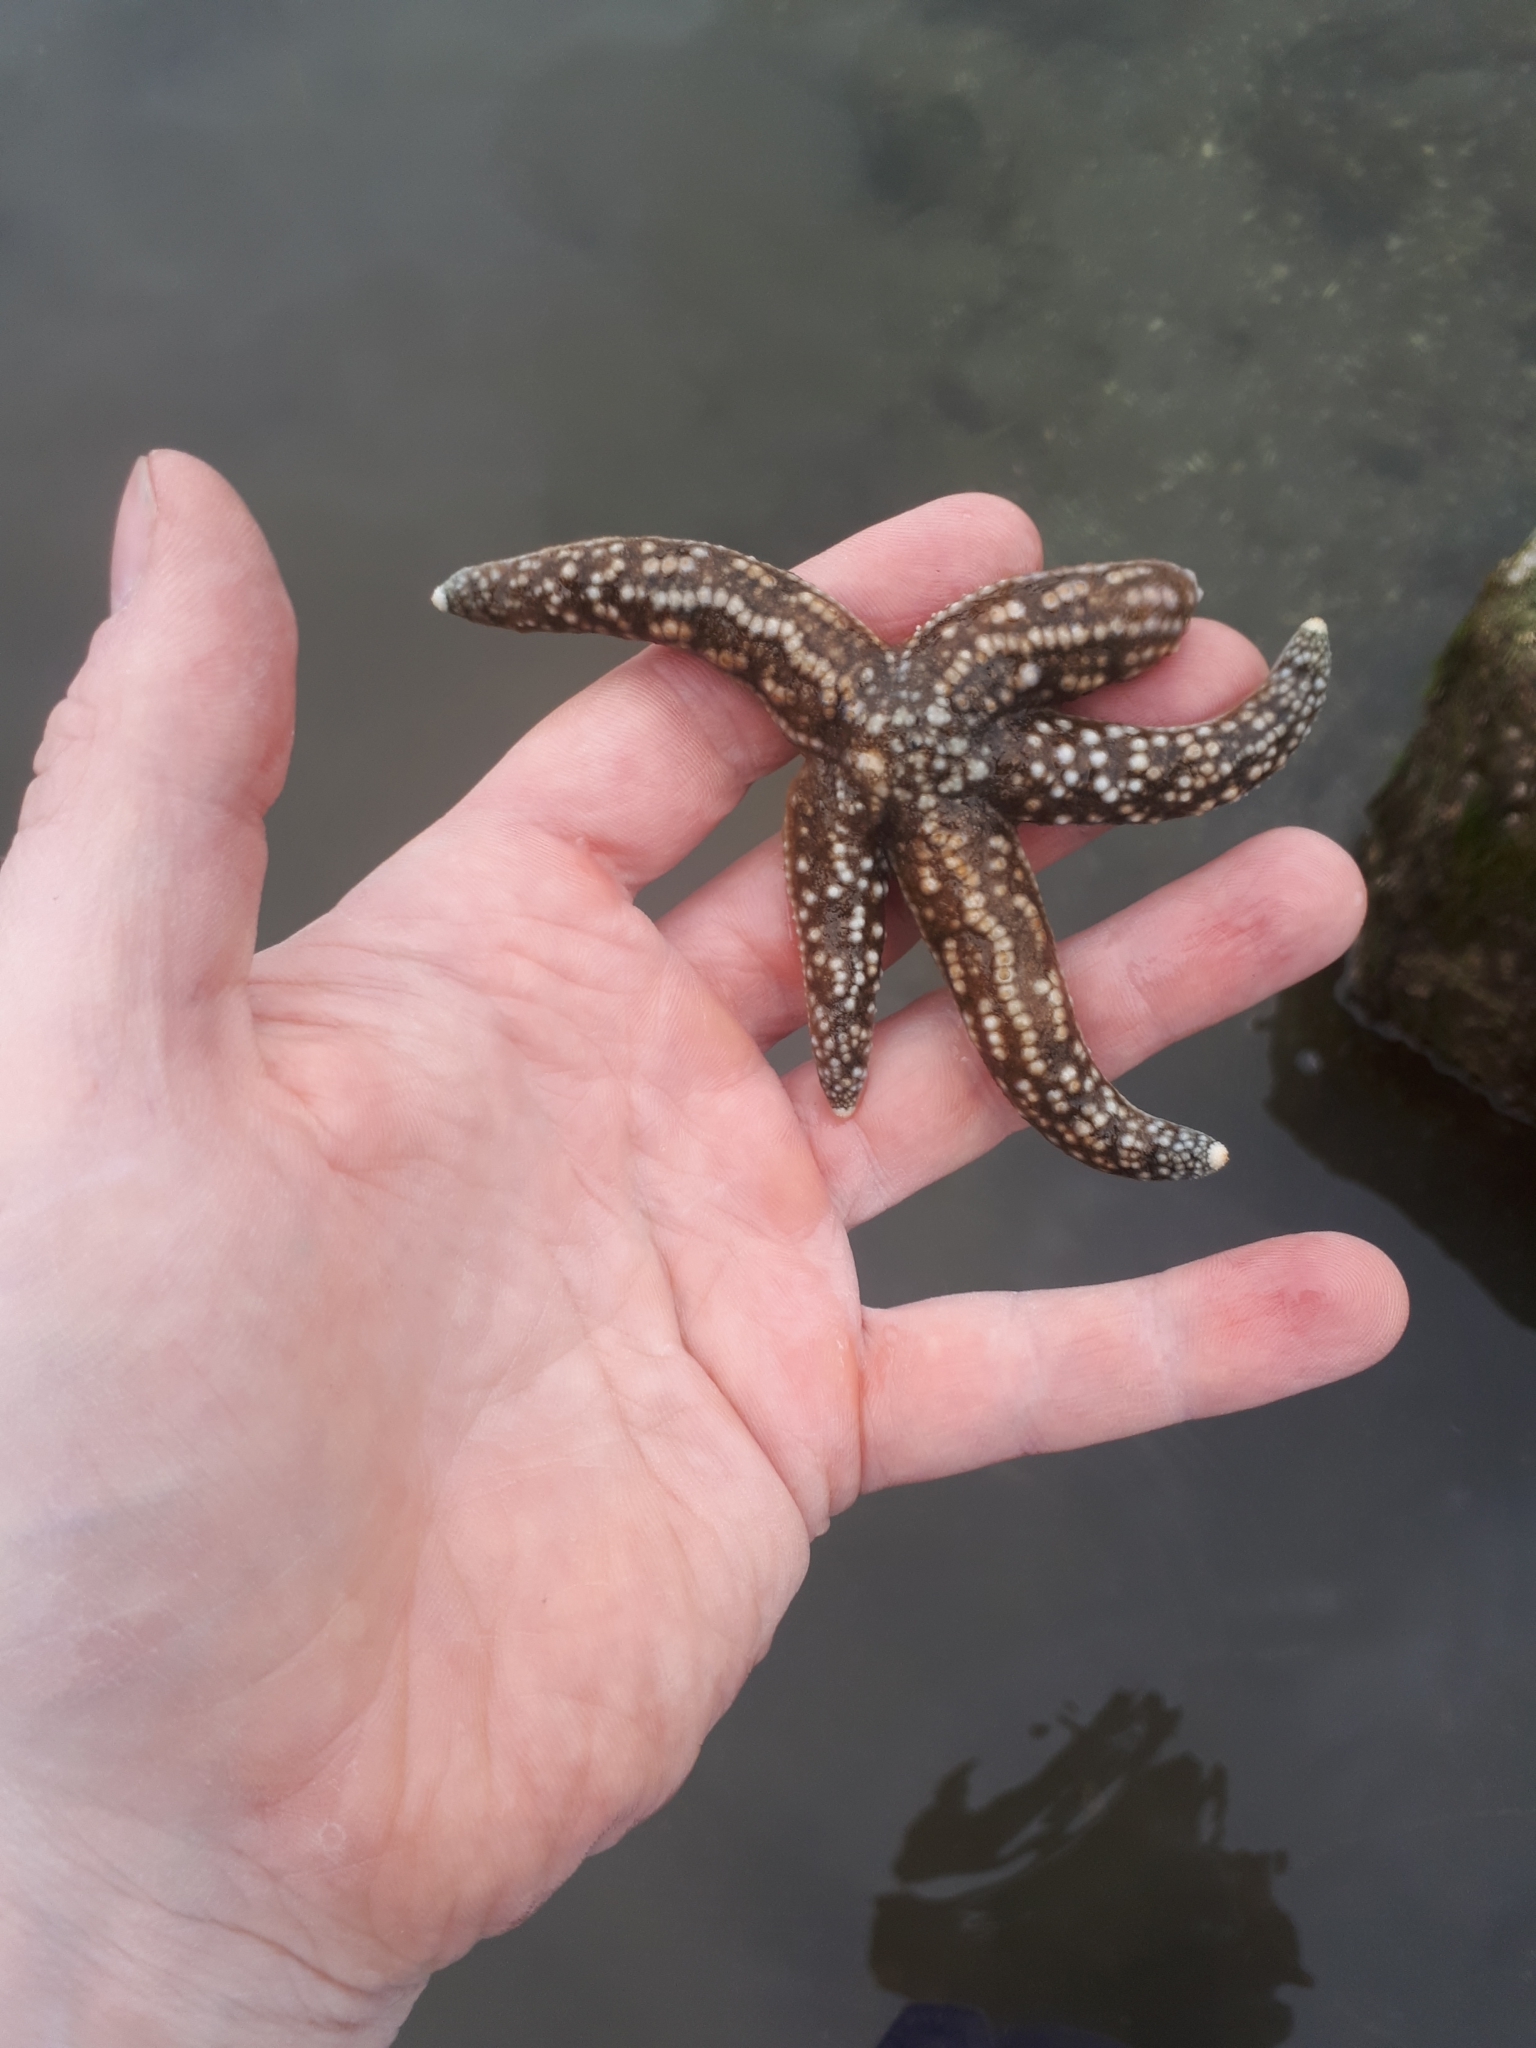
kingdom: Animalia
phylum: Echinodermata
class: Asteroidea
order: Forcipulatida
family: Asteriidae
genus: Evasterias
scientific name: Evasterias troschelii
